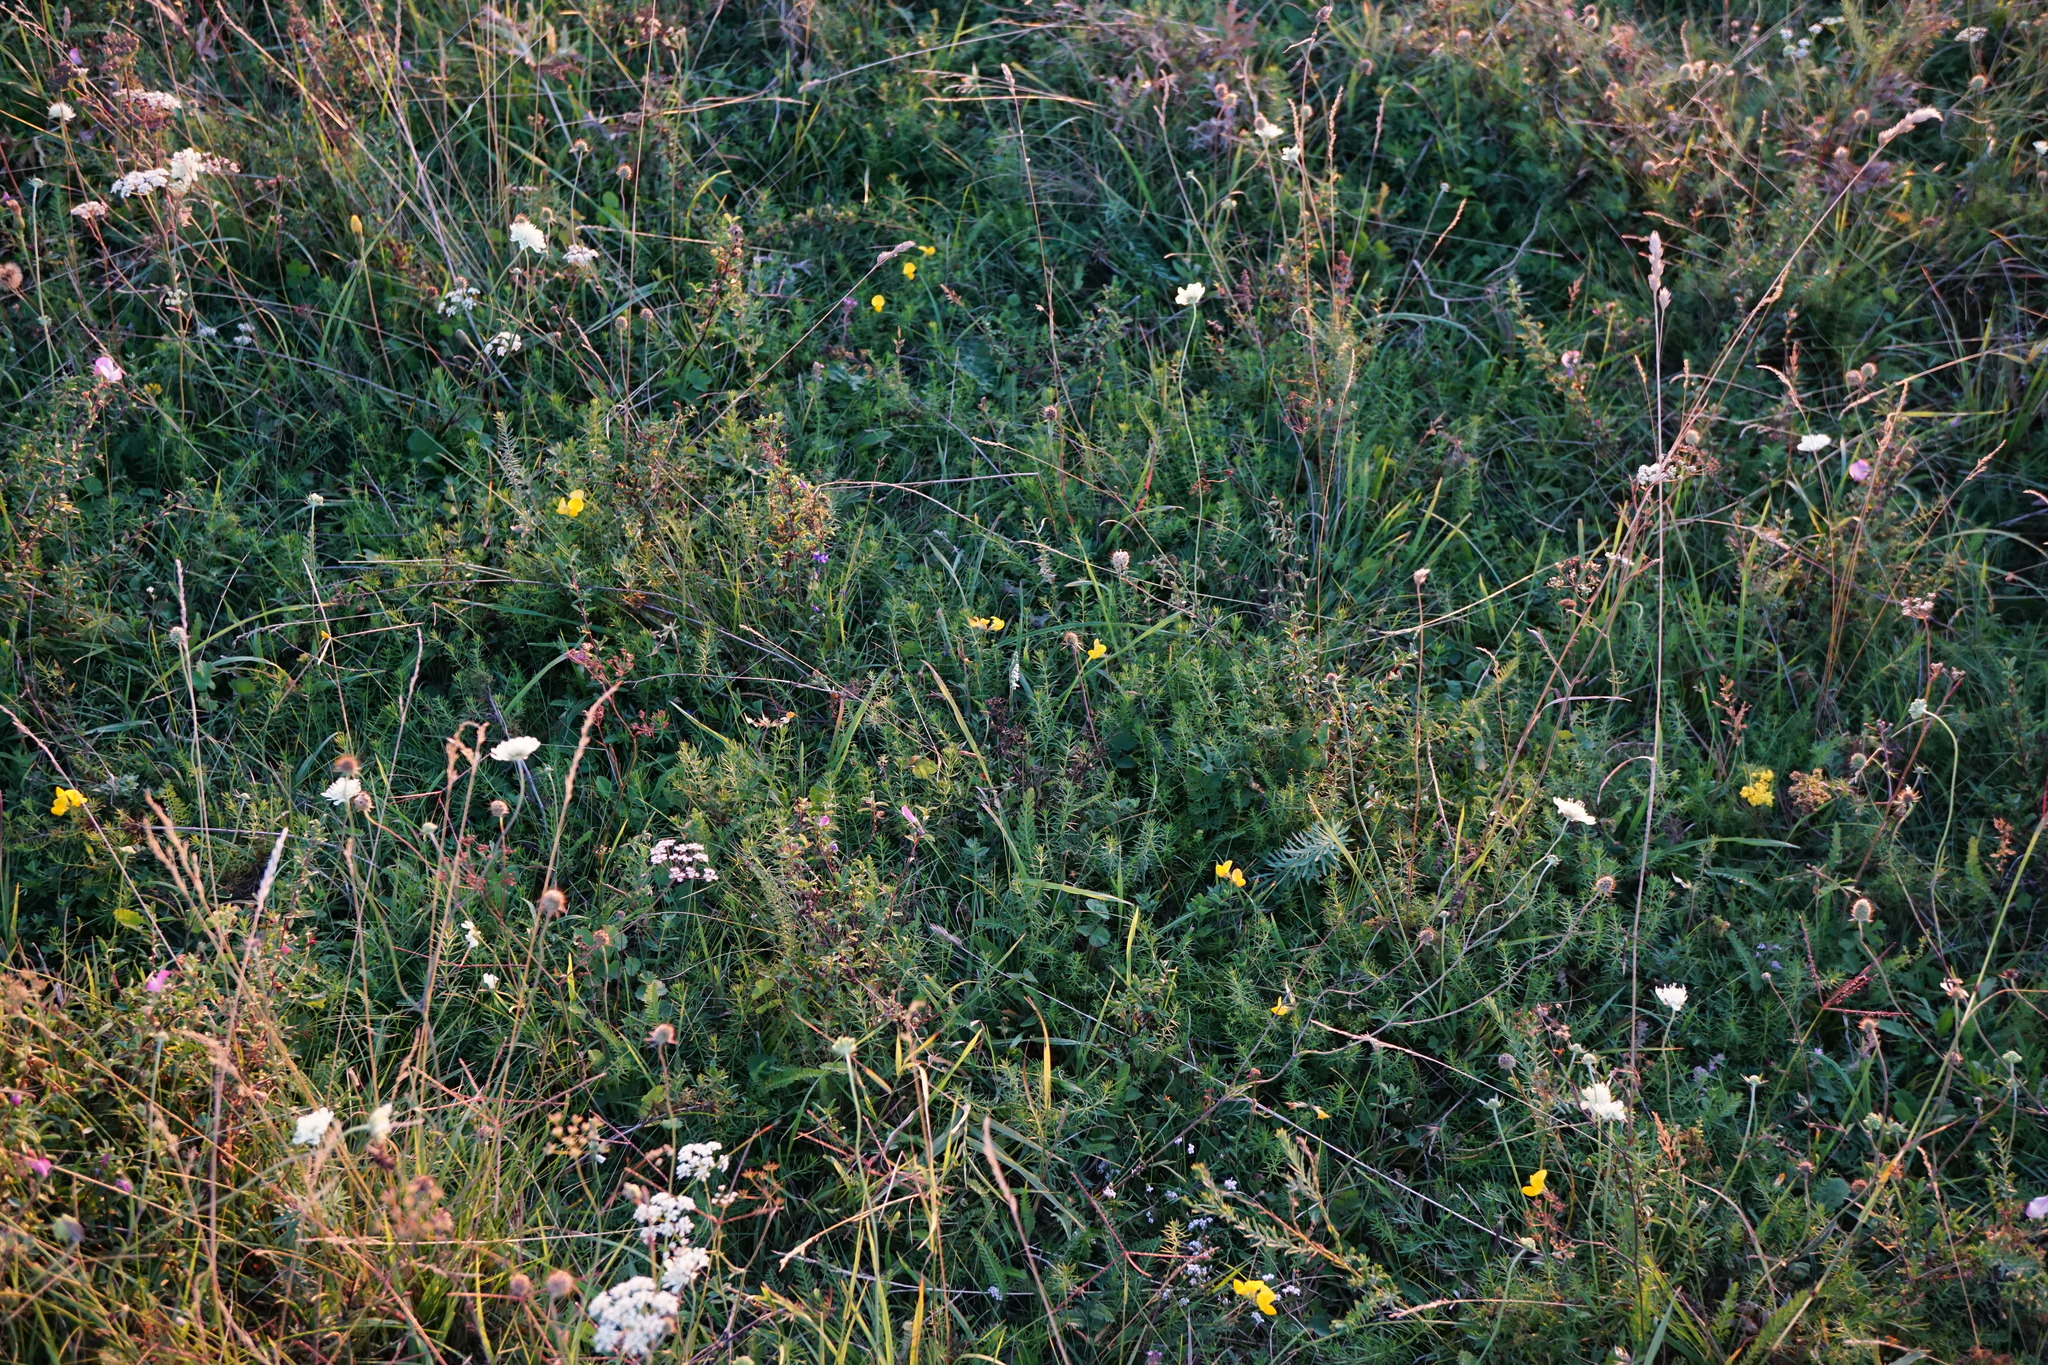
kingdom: Plantae
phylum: Tracheophyta
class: Liliopsida
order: Asparagales
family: Orchidaceae
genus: Spiranthes
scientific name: Spiranthes spiralis
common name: Autumn lady's-tresses
